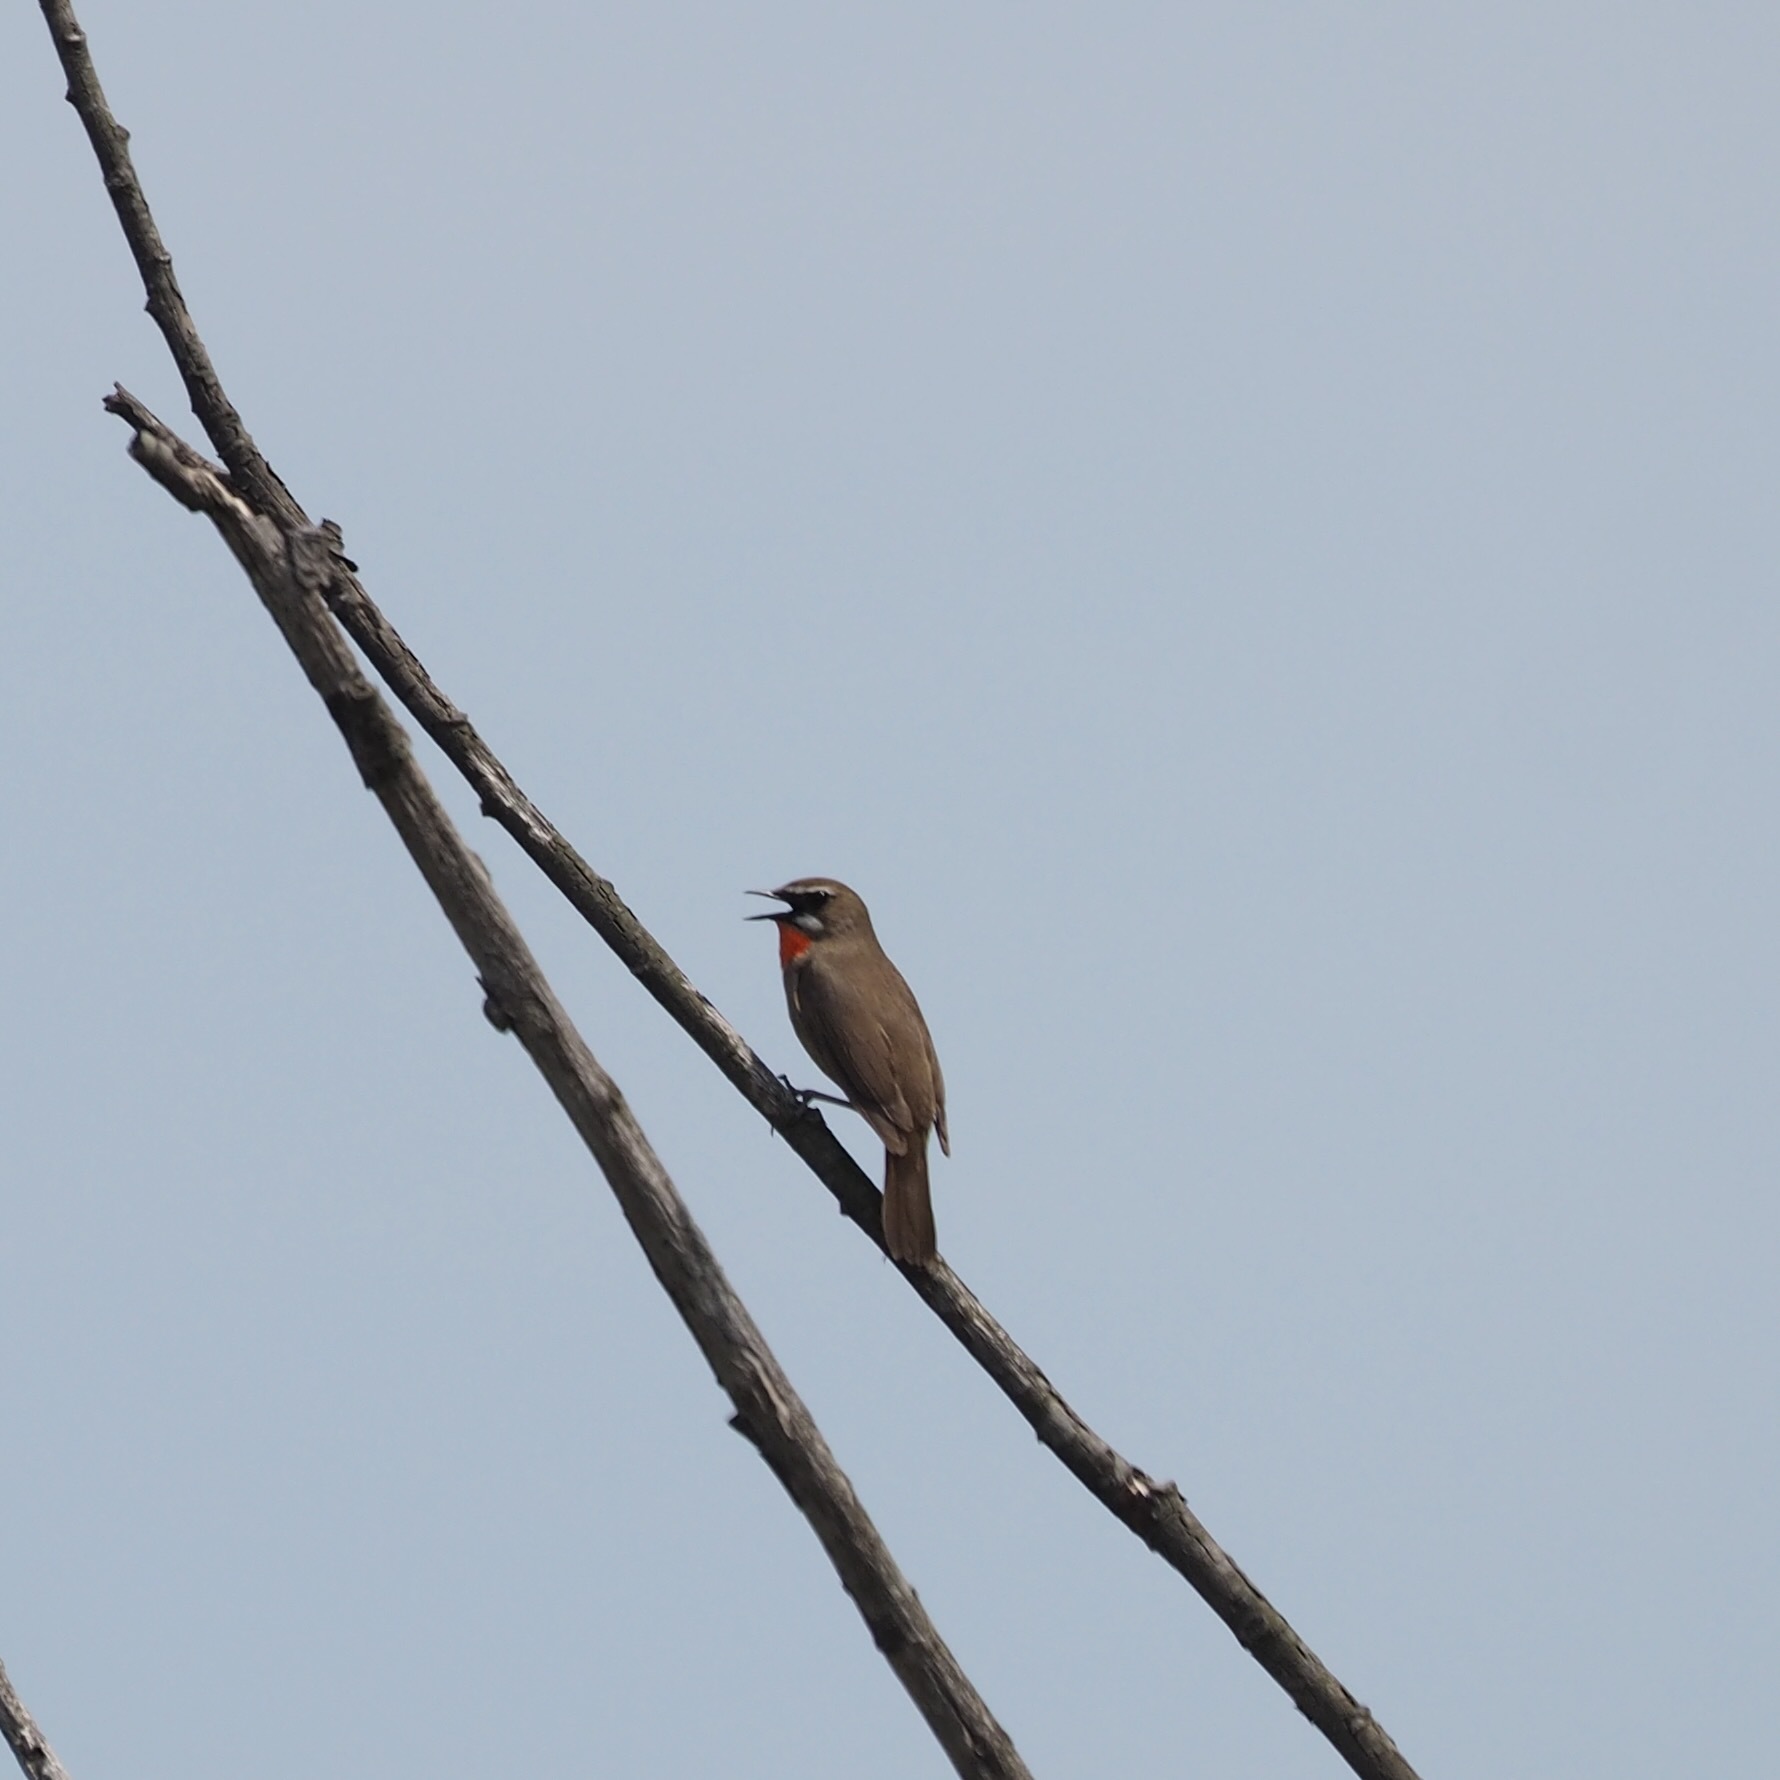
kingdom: Animalia
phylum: Chordata
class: Aves
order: Passeriformes
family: Muscicapidae
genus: Luscinia
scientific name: Luscinia calliope
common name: Siberian rubythroat
